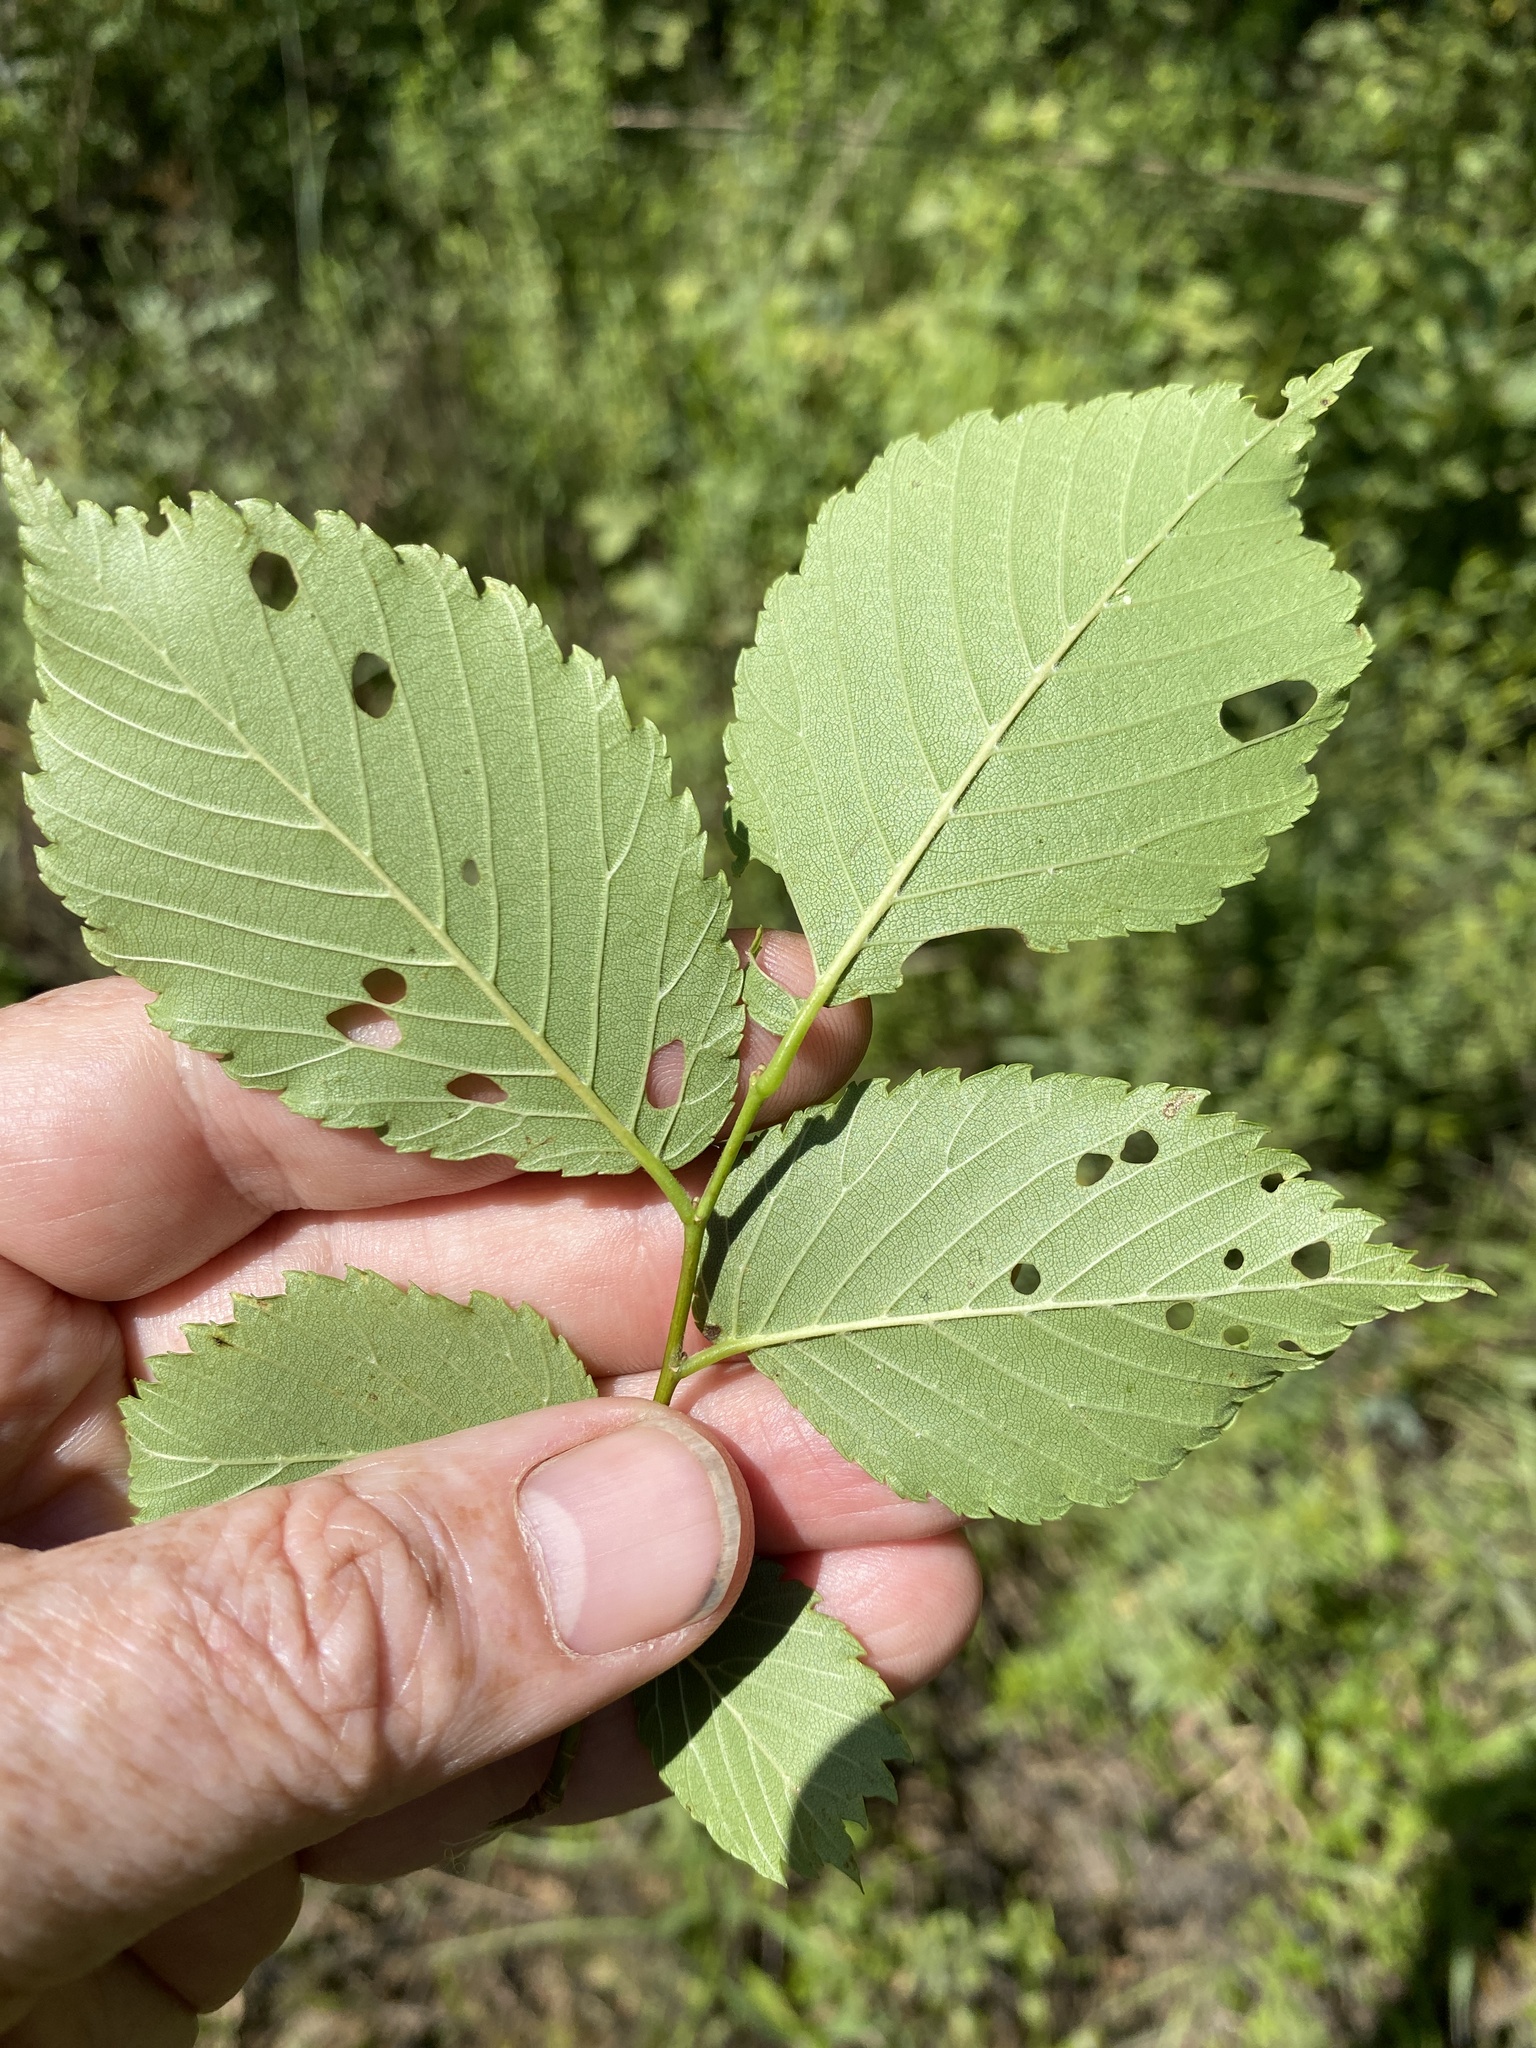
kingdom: Plantae
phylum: Tracheophyta
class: Magnoliopsida
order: Rosales
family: Ulmaceae
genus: Ulmus
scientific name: Ulmus americana
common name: American elm
